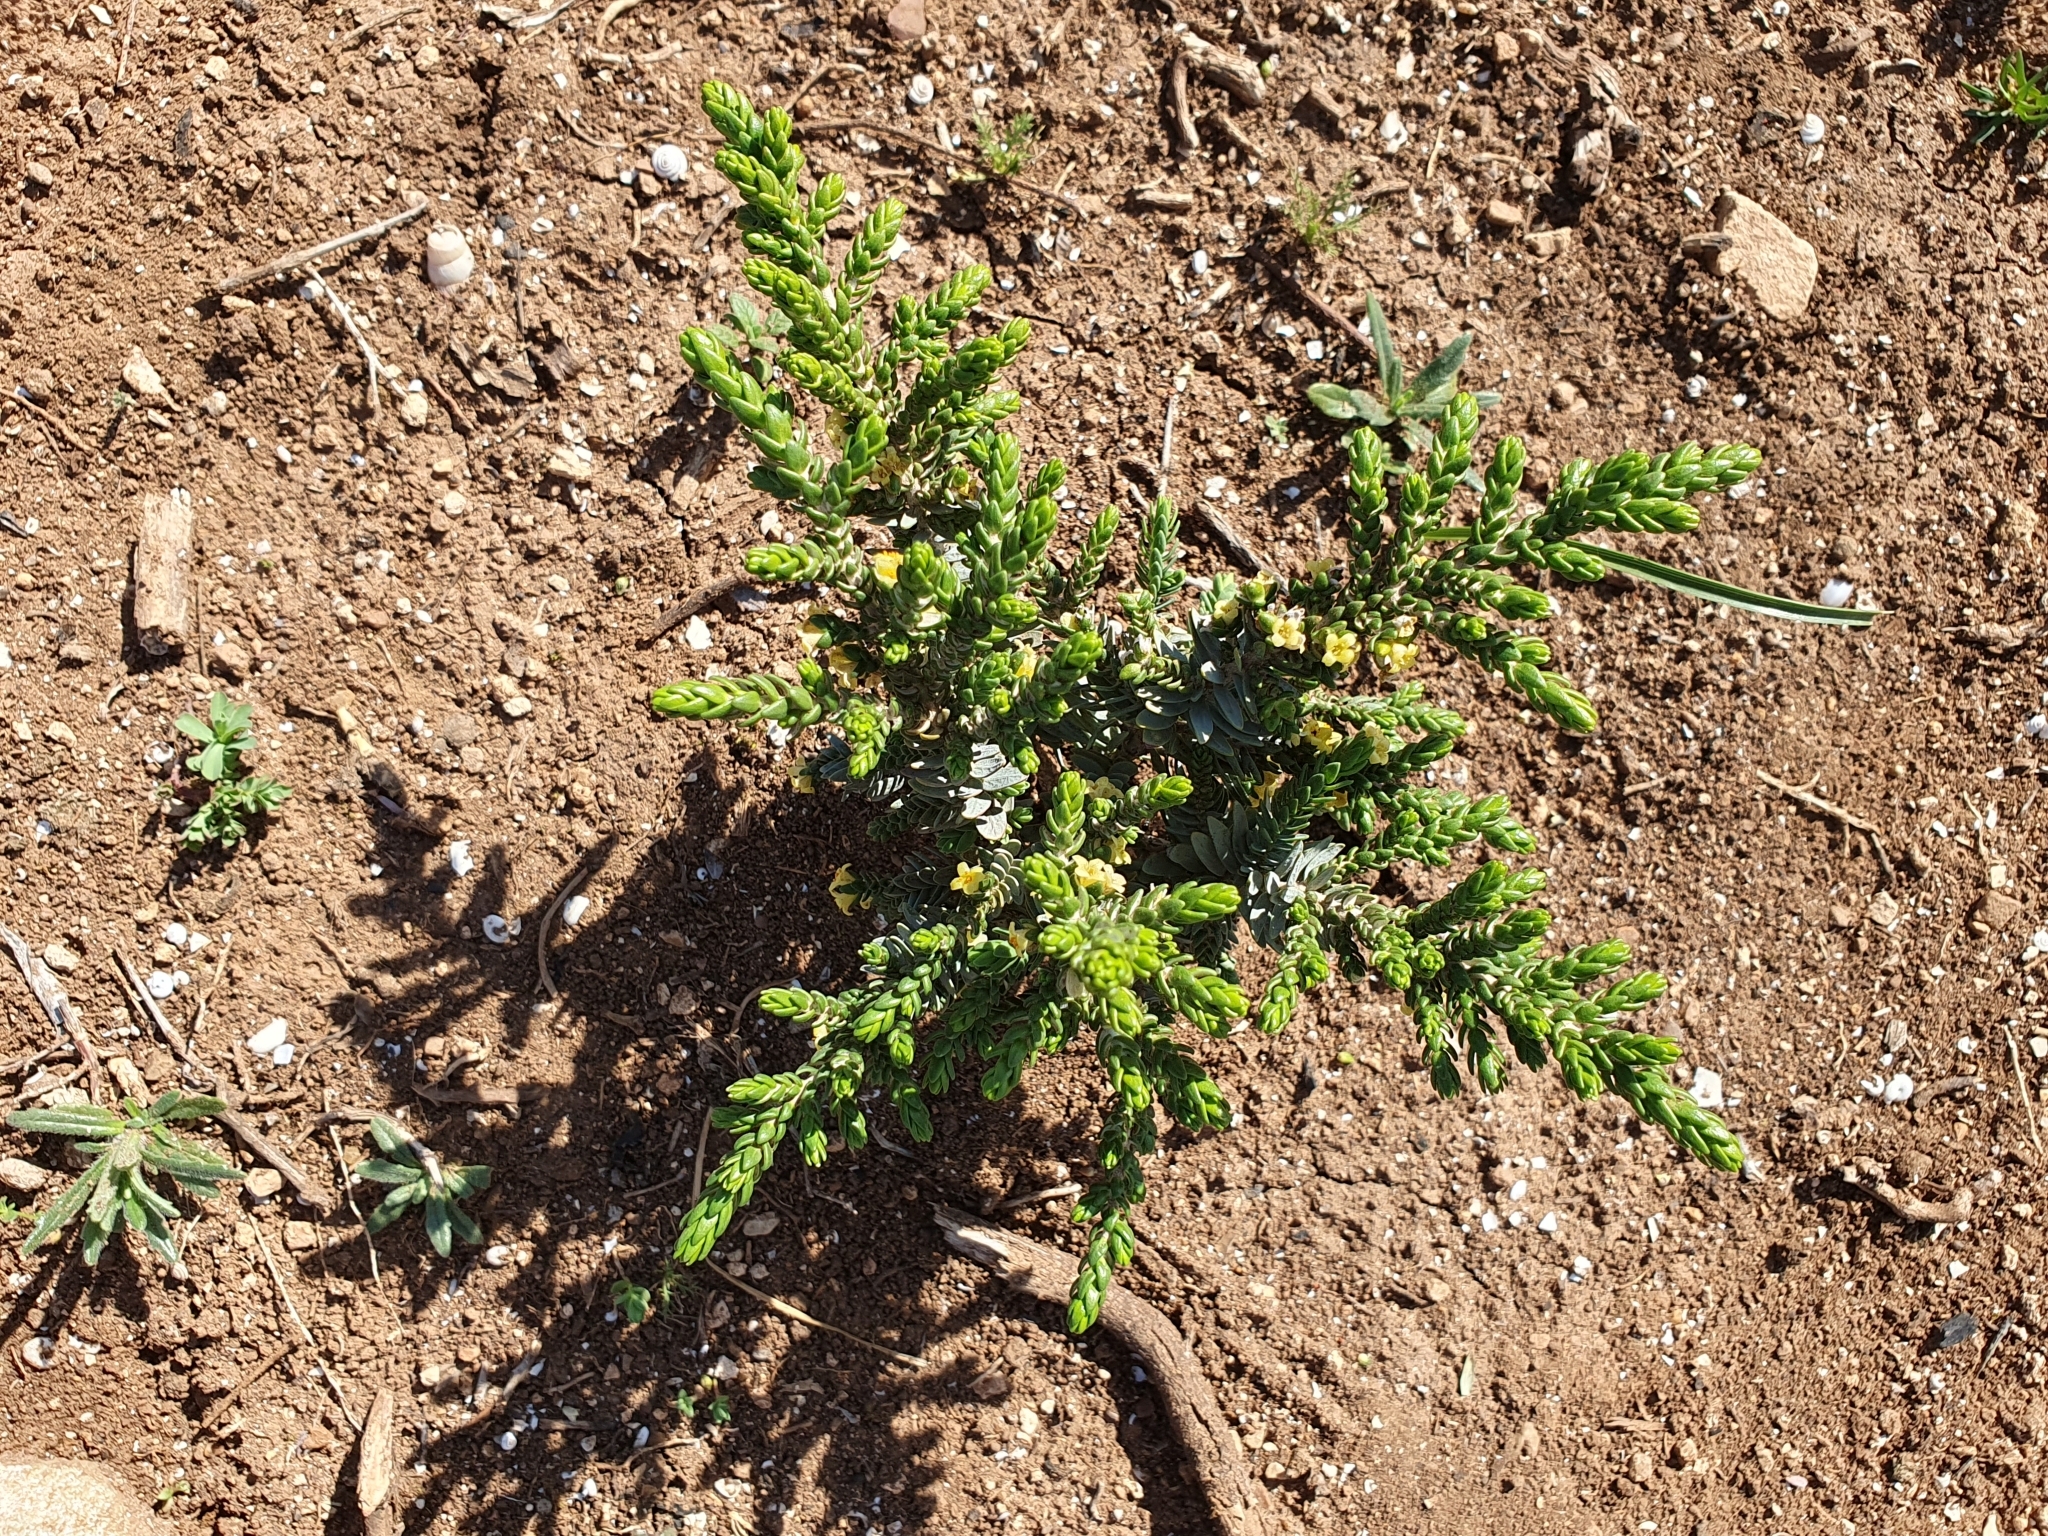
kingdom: Plantae
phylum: Tracheophyta
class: Magnoliopsida
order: Malvales
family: Thymelaeaceae
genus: Thymelaea
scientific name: Thymelaea hirsuta
